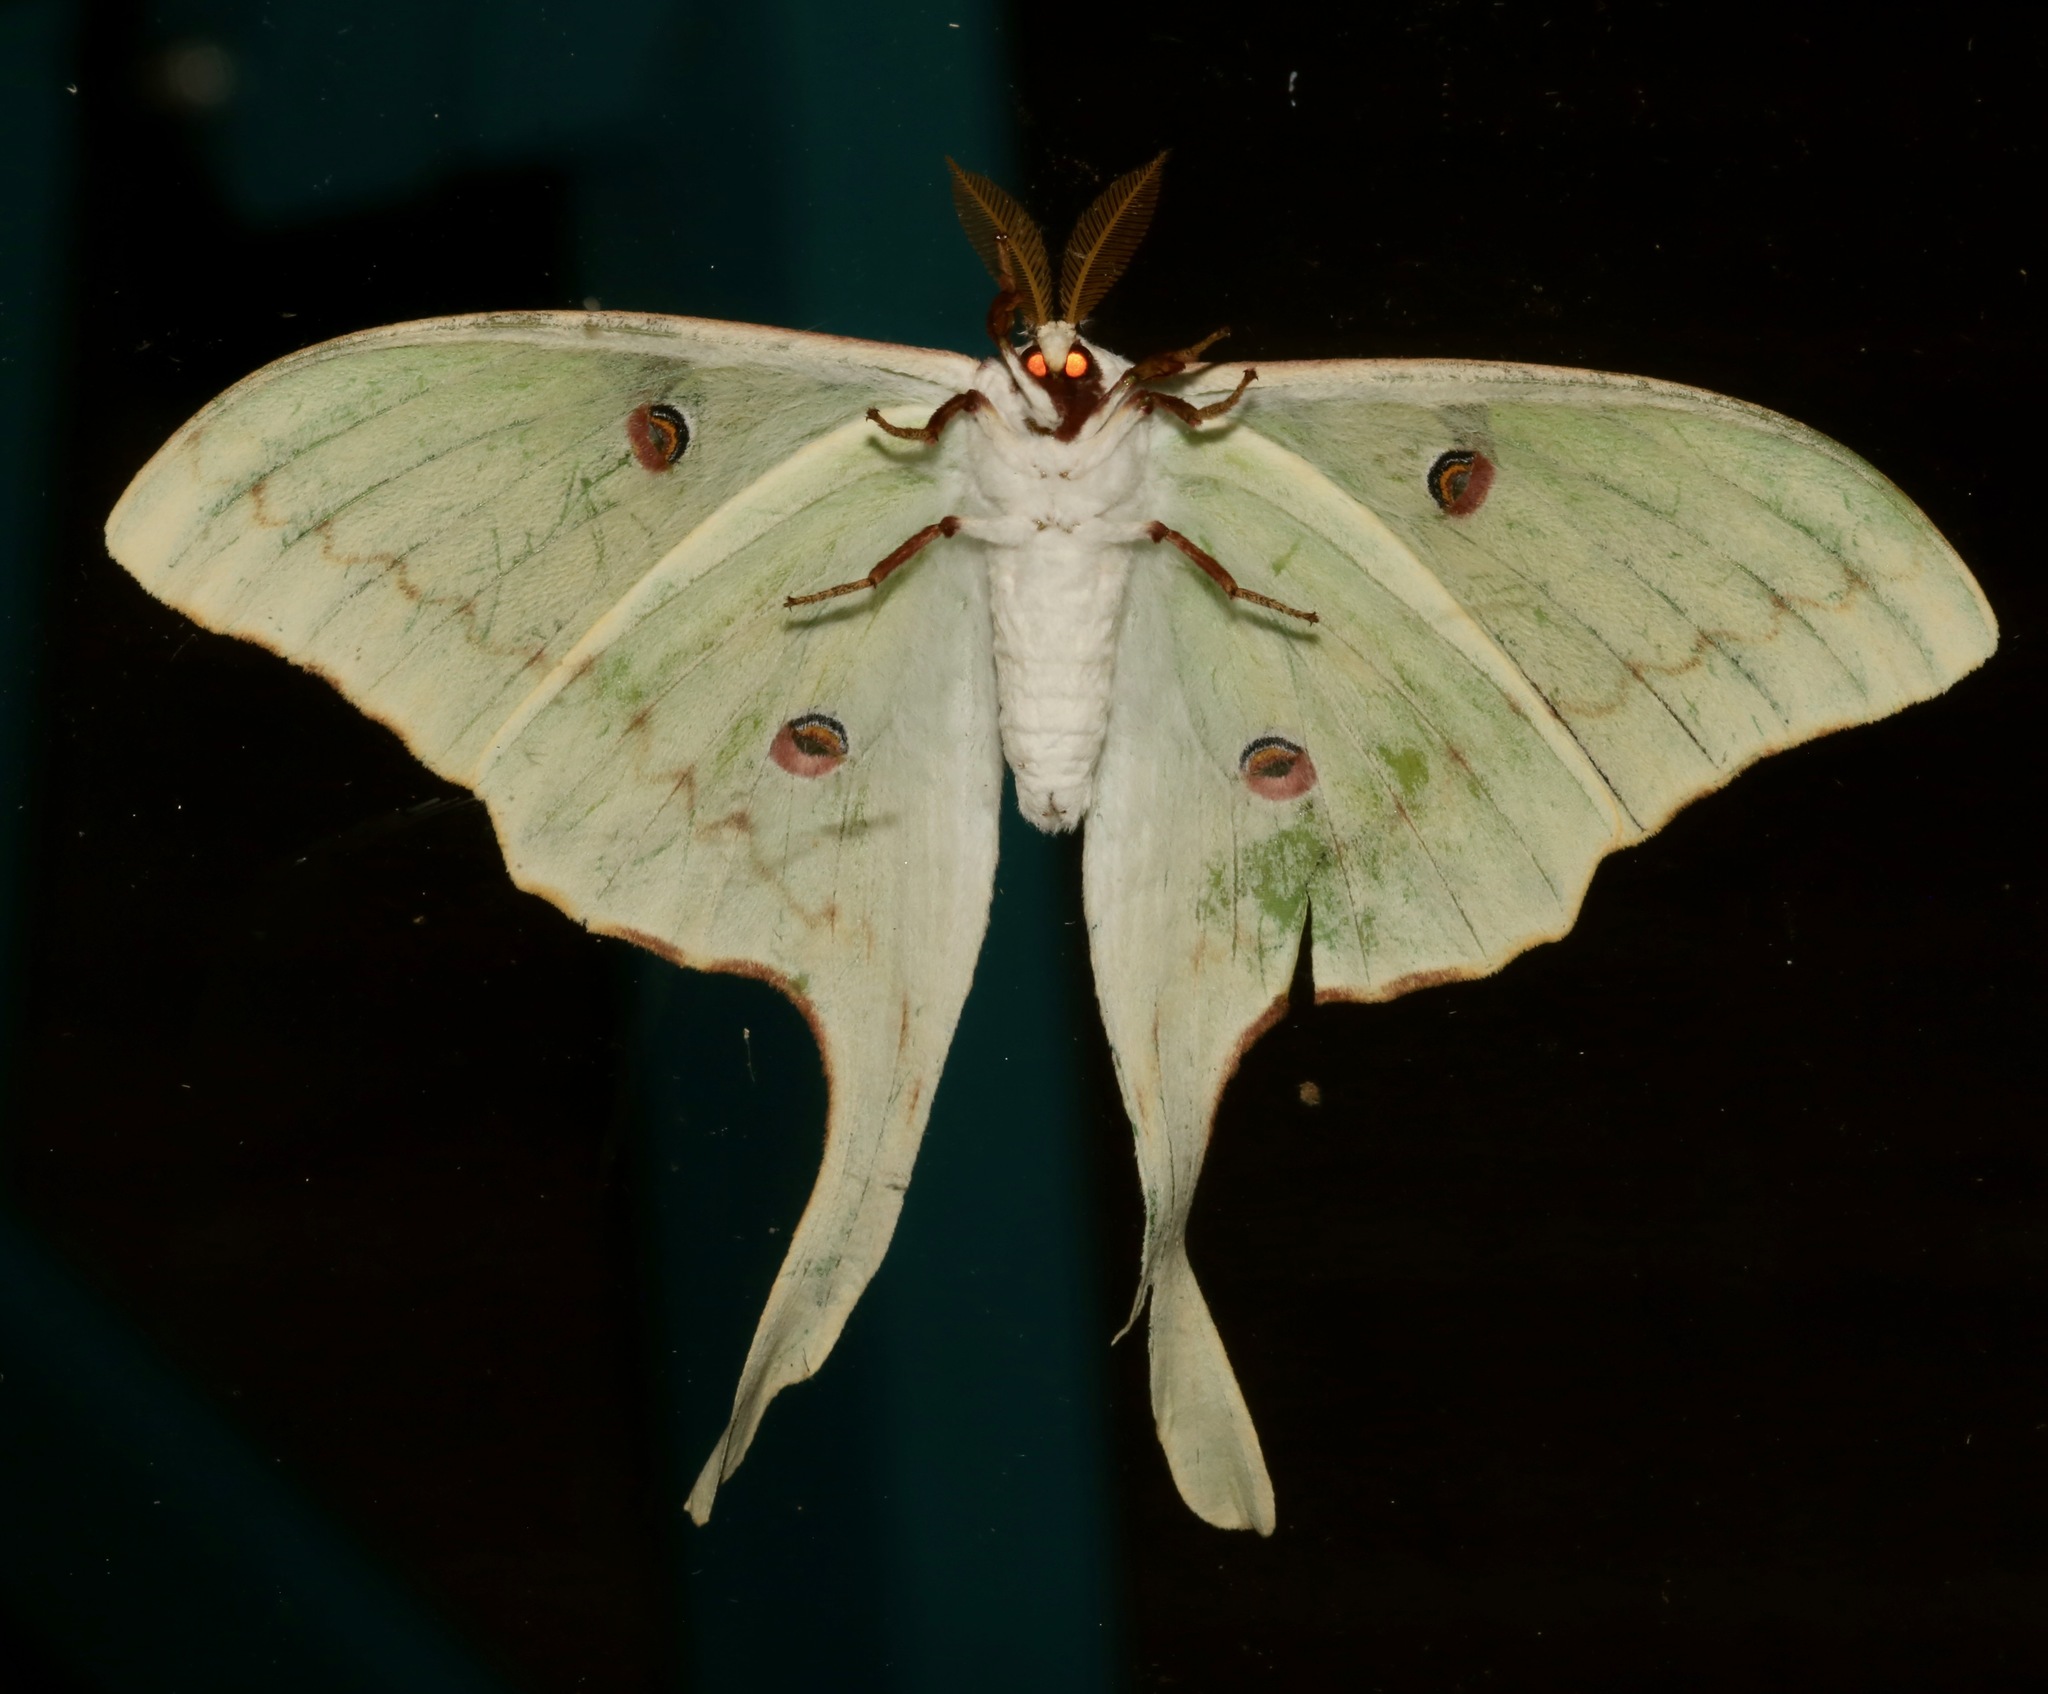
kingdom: Animalia
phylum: Arthropoda
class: Insecta
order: Lepidoptera
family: Saturniidae
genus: Actias
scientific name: Actias luna
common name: Luna moth
